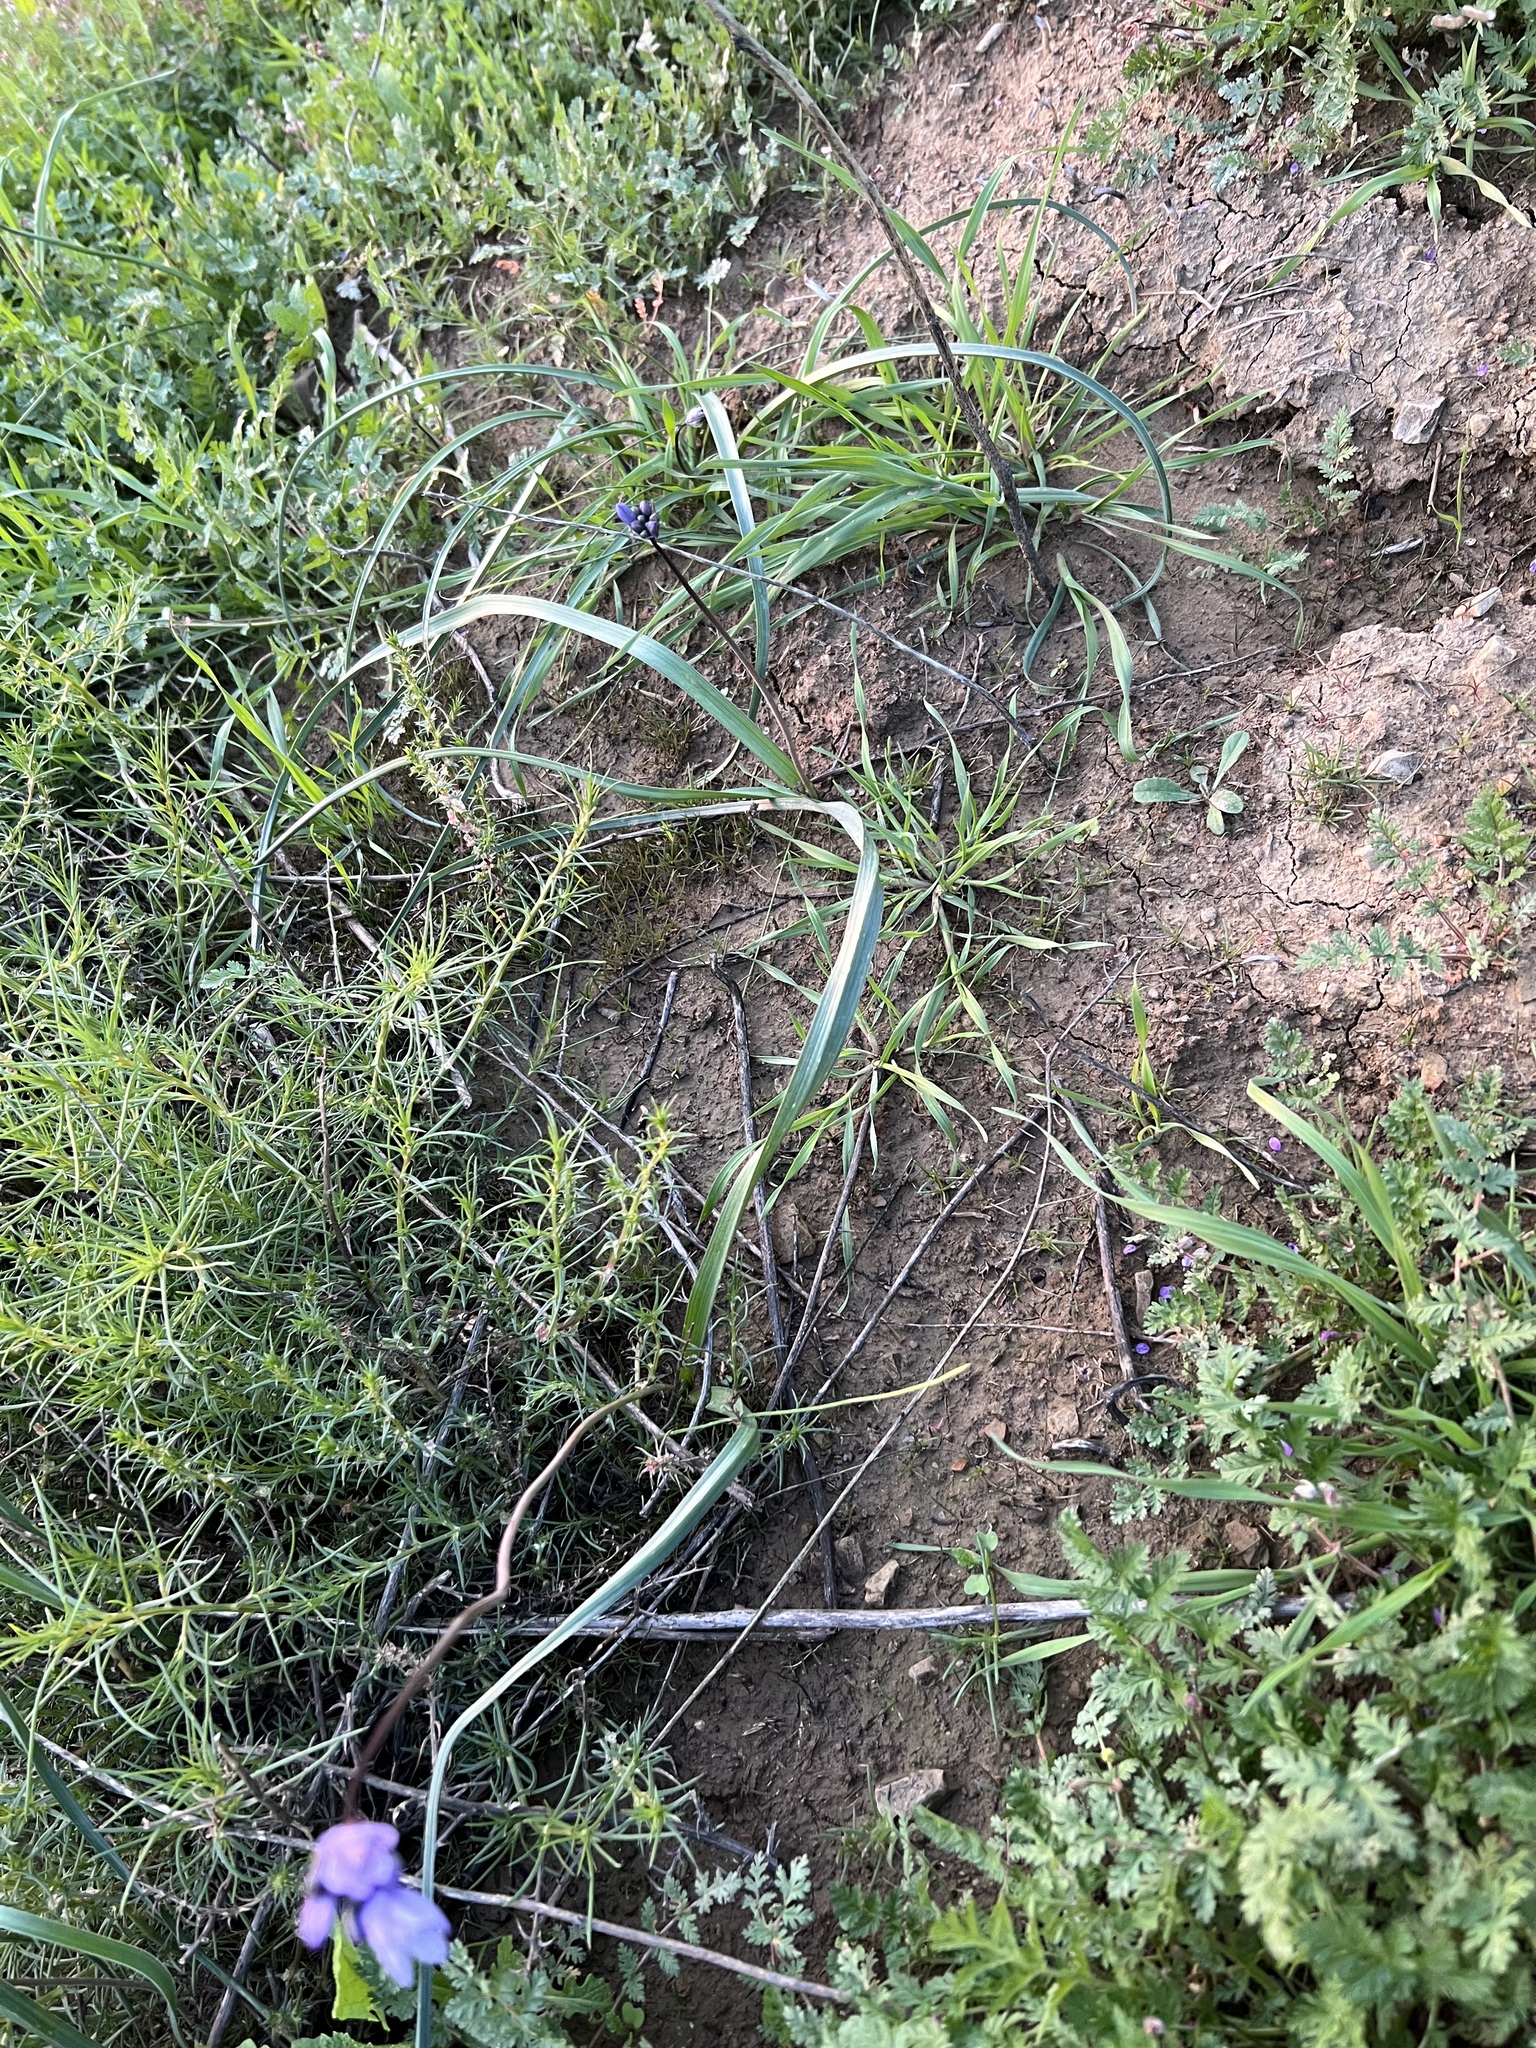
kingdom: Plantae
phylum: Tracheophyta
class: Liliopsida
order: Asparagales
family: Asparagaceae
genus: Dipterostemon
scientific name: Dipterostemon capitatus
